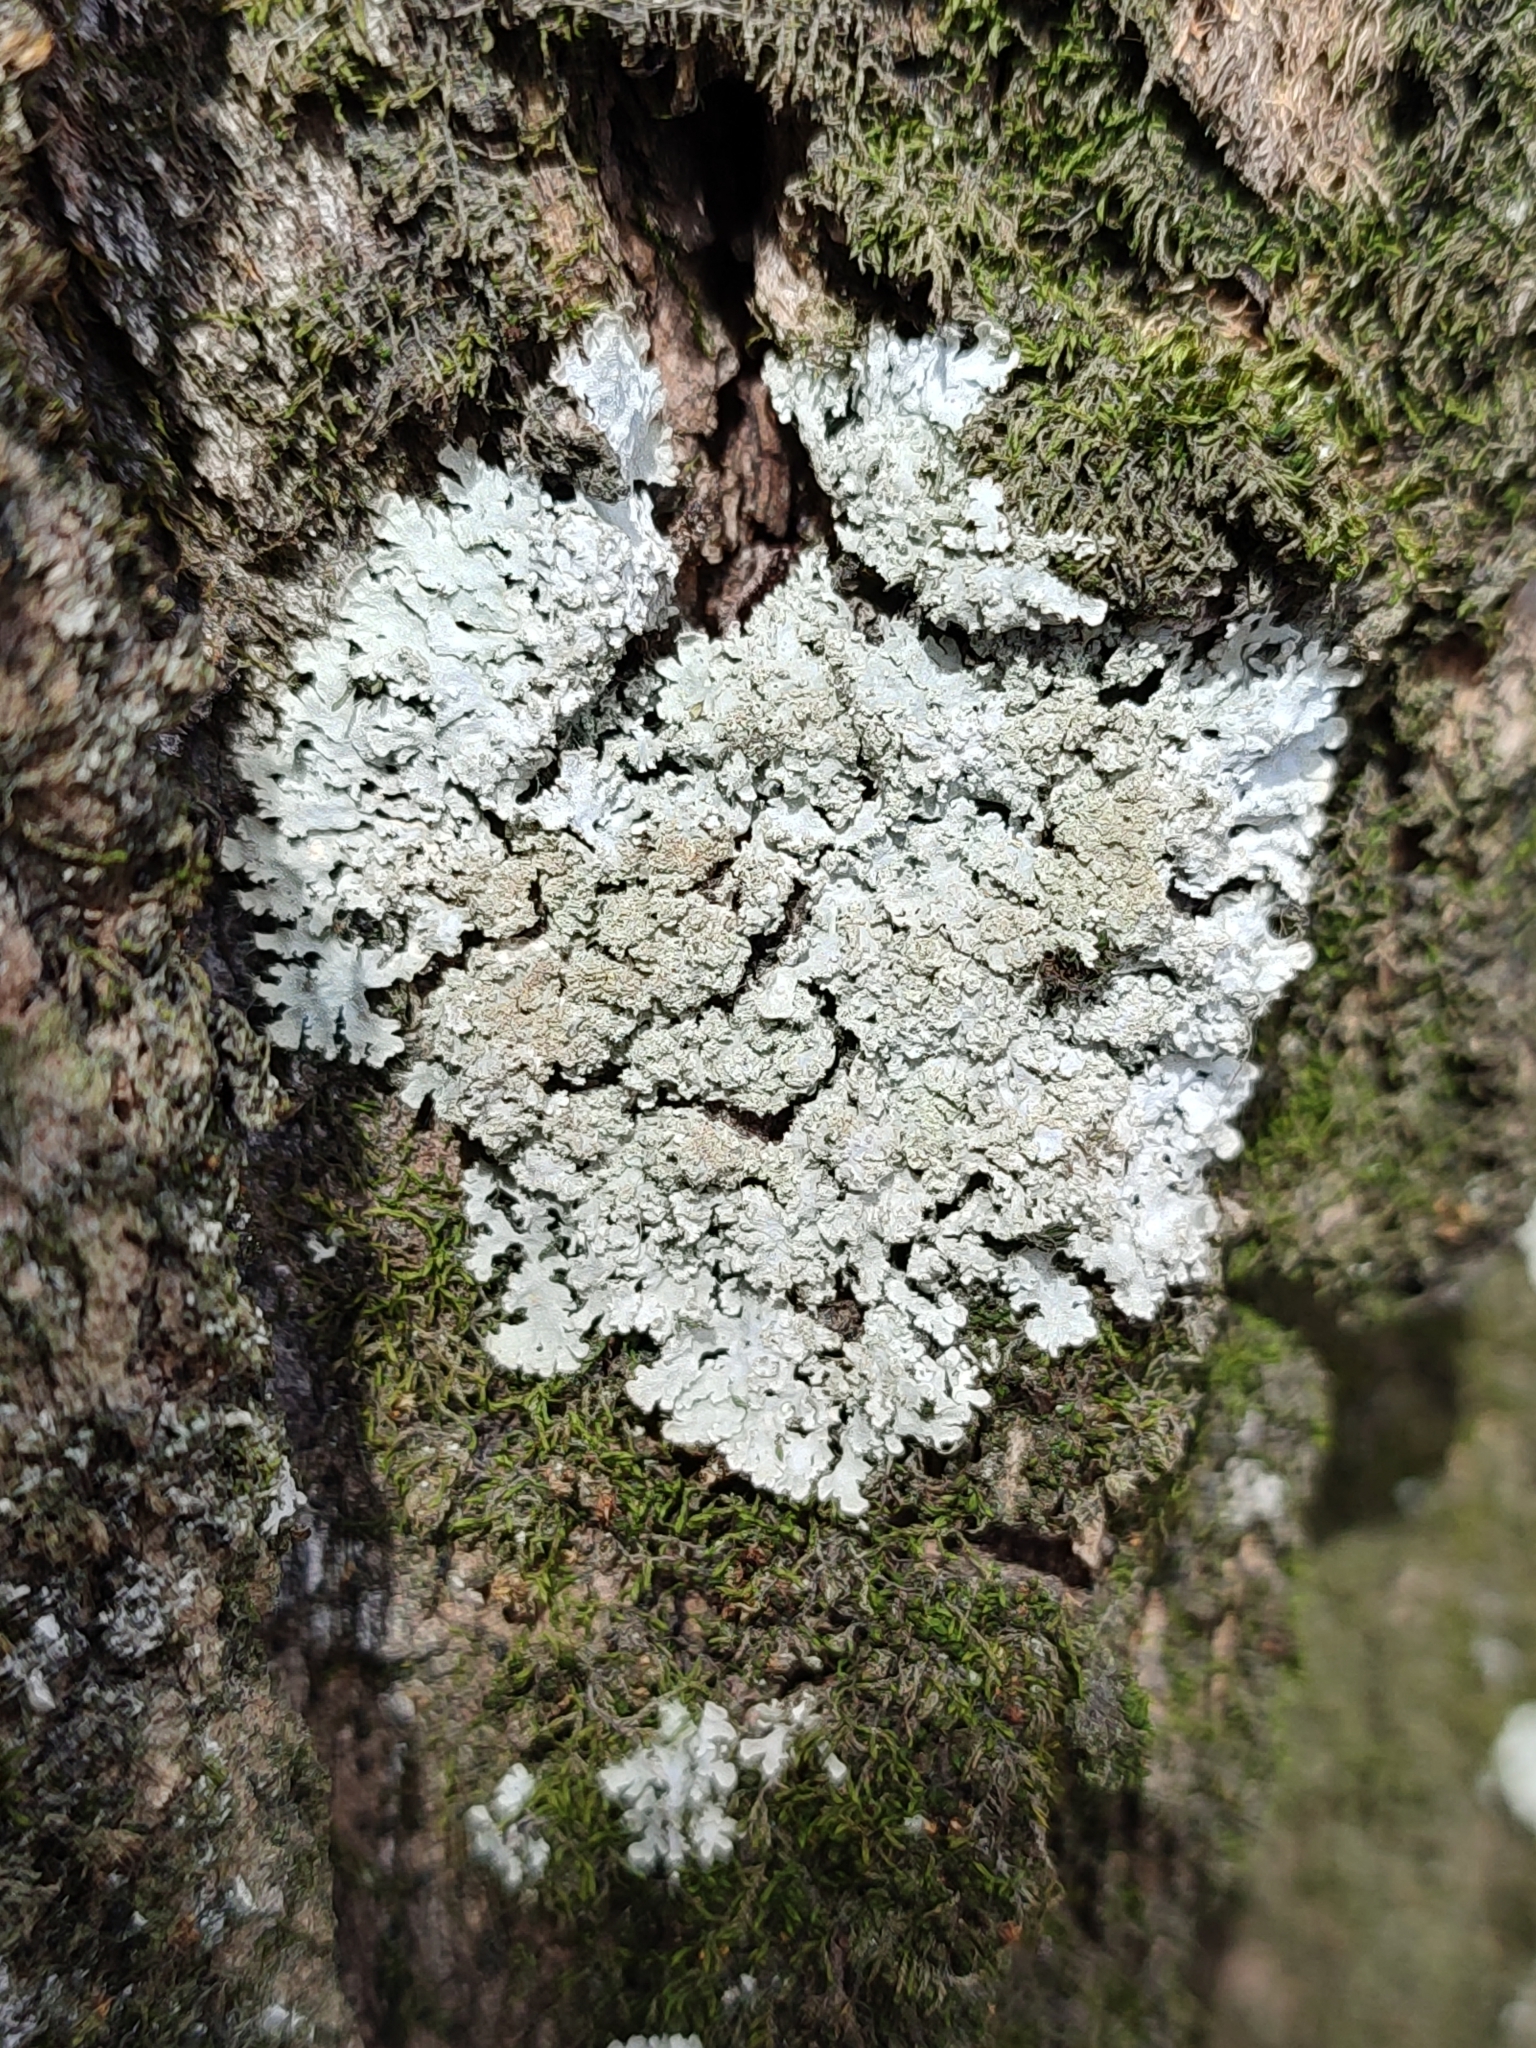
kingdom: Fungi
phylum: Ascomycota
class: Lecanoromycetes
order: Caliciales
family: Physciaceae
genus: Poeltonia
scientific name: Poeltonia grisea
